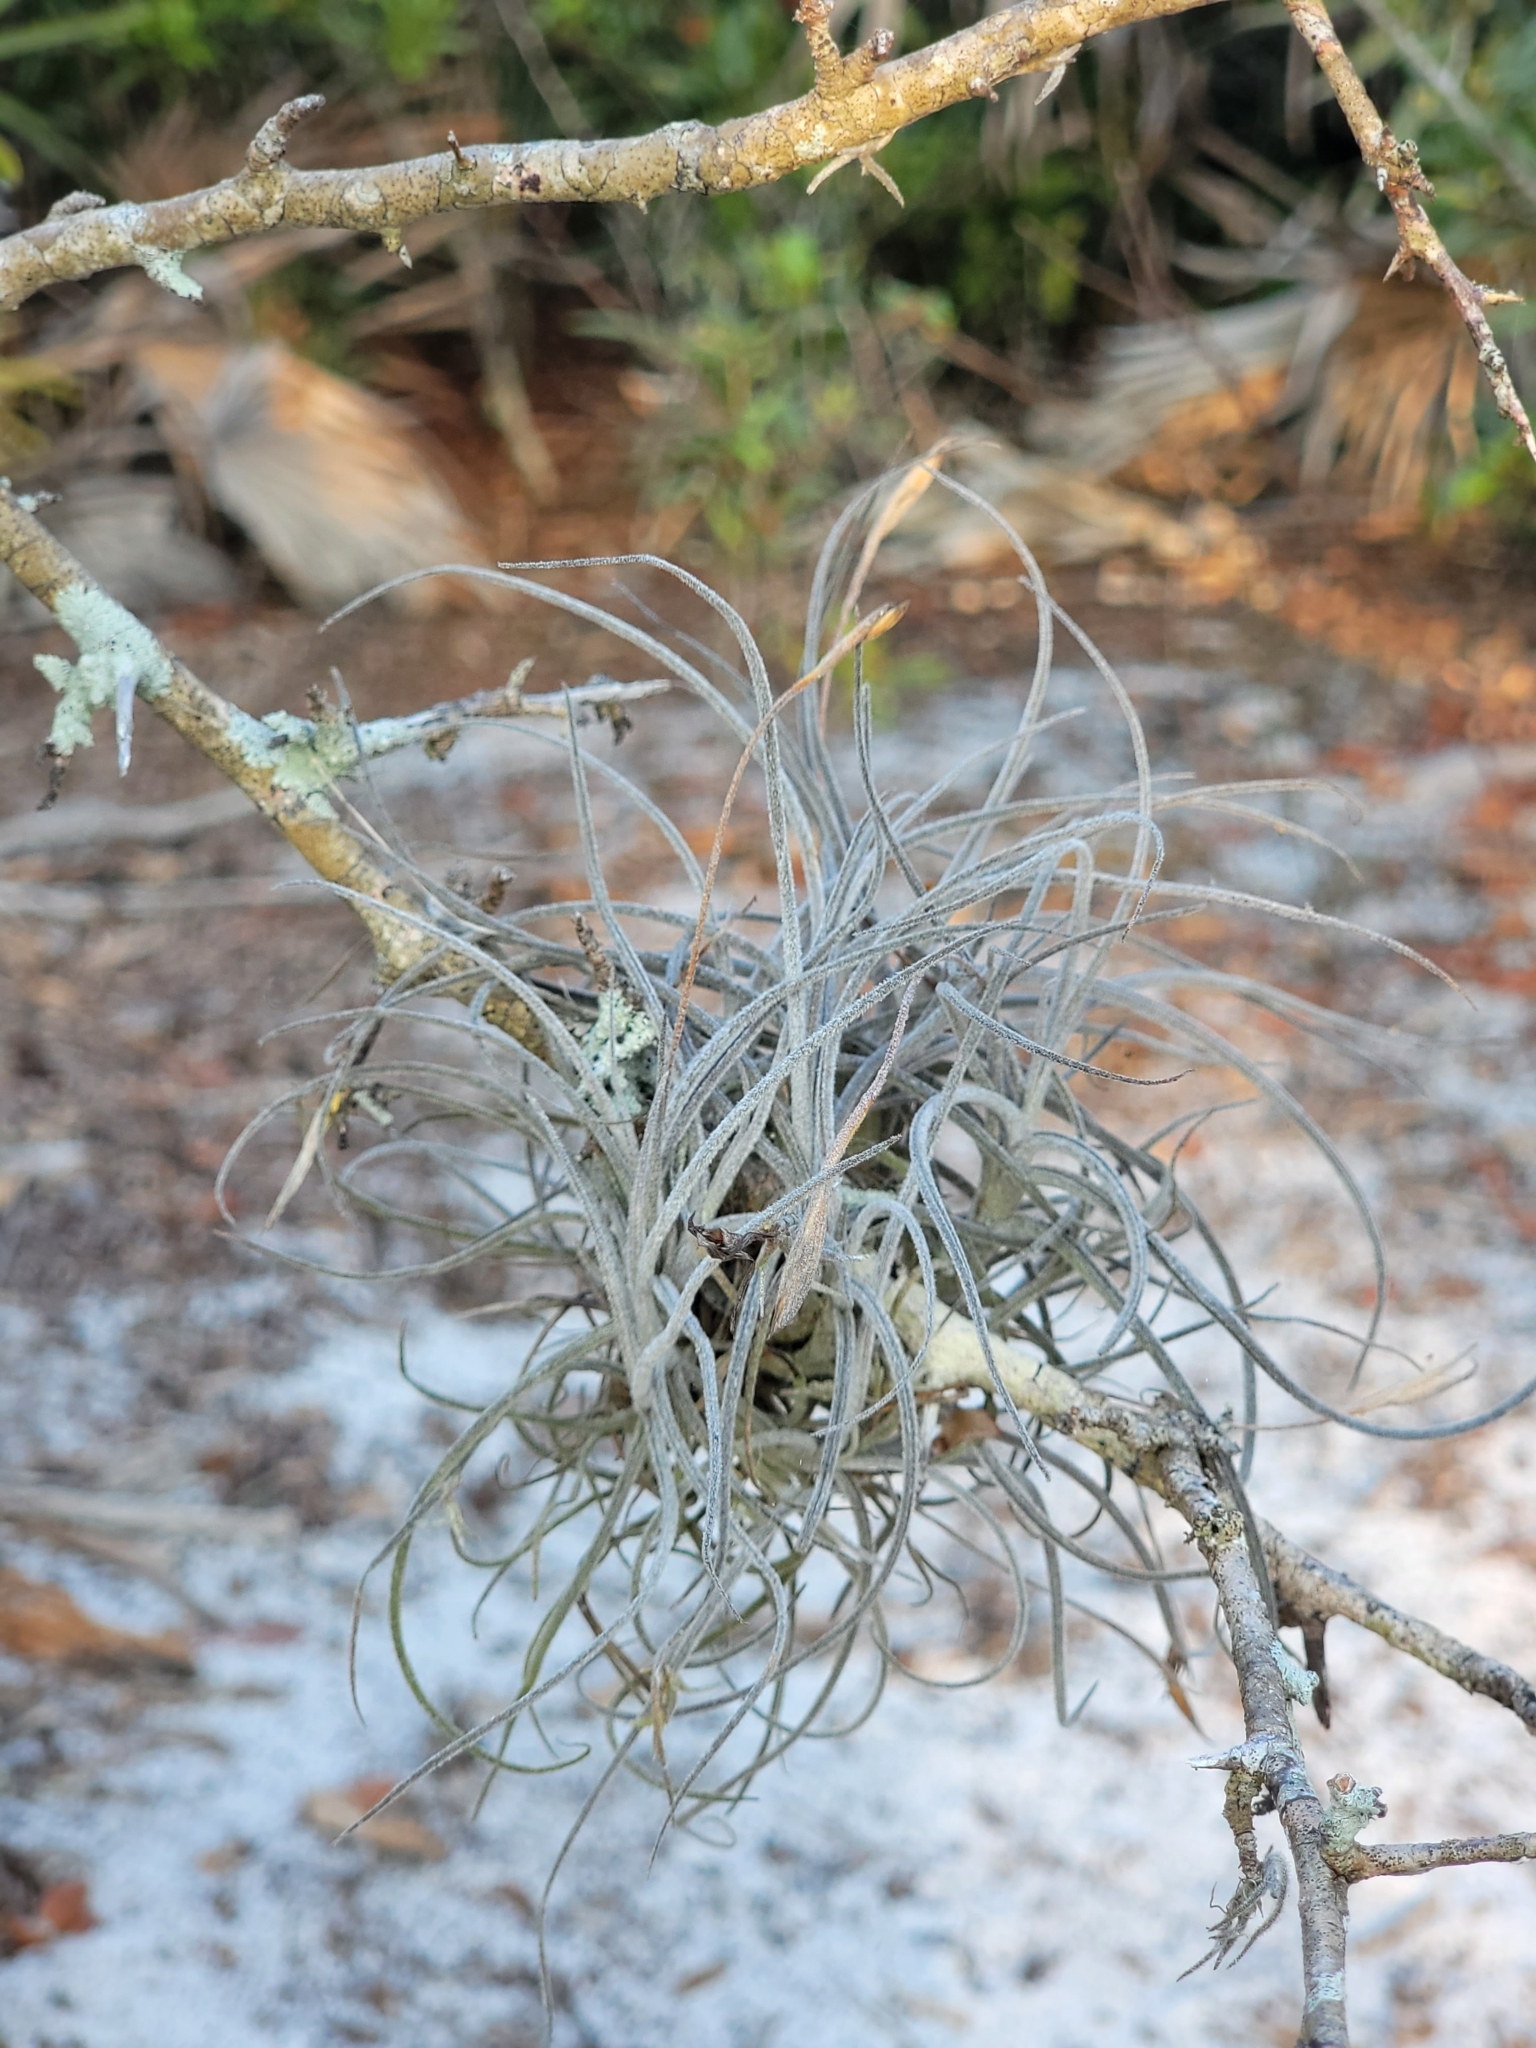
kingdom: Plantae
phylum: Tracheophyta
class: Liliopsida
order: Poales
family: Bromeliaceae
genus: Tillandsia
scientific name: Tillandsia recurvata
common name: Small ballmoss
